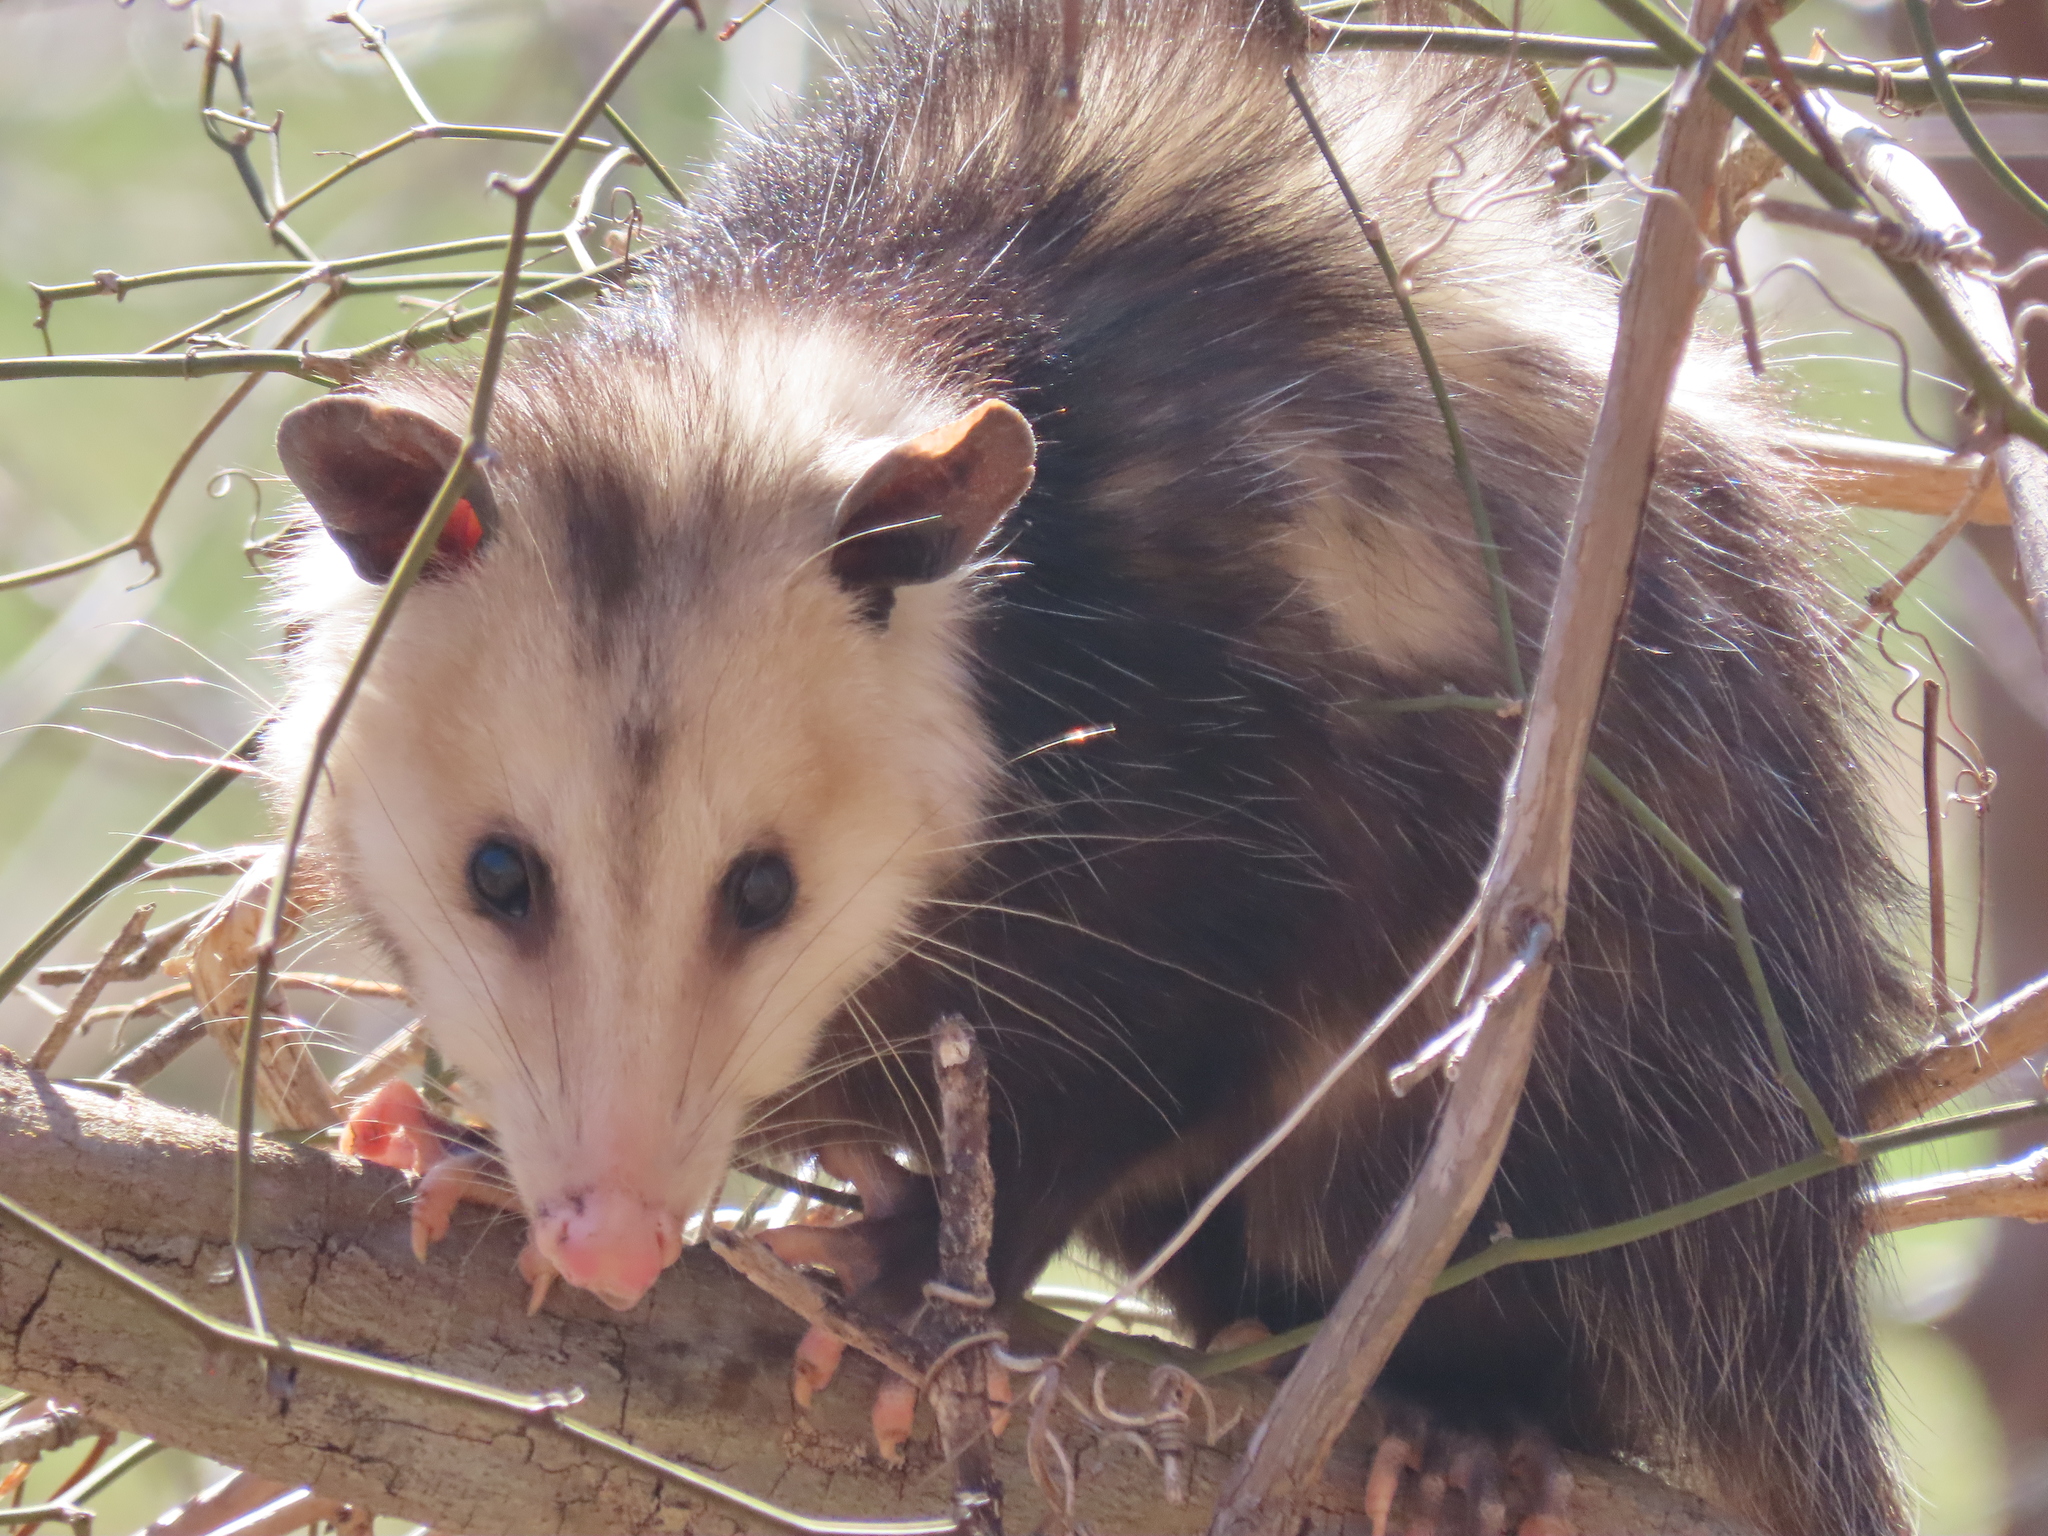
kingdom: Animalia
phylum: Chordata
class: Mammalia
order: Didelphimorphia
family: Didelphidae
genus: Didelphis
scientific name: Didelphis virginiana
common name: Virginia opossum
